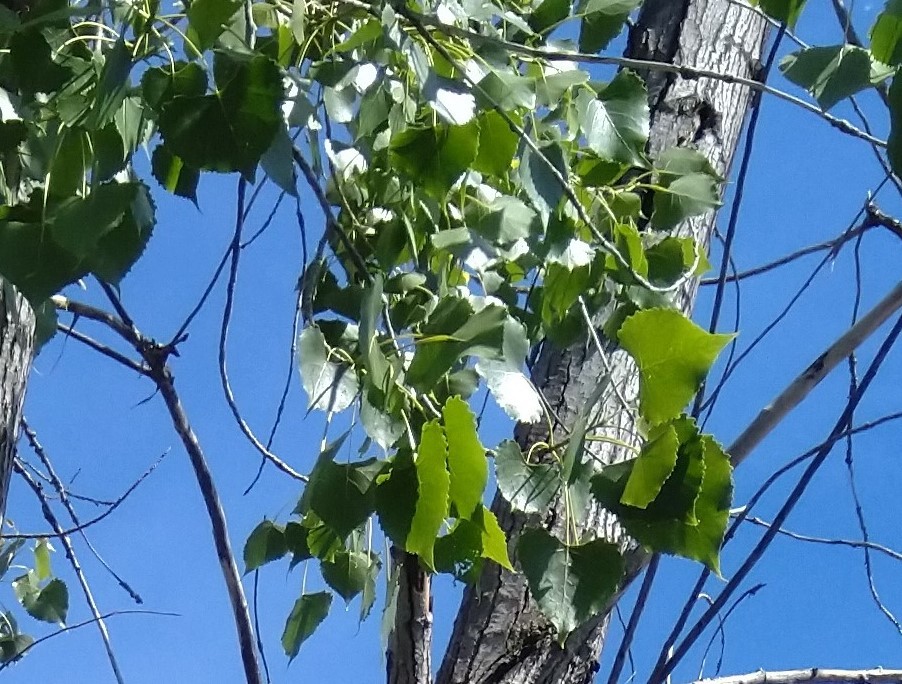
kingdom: Plantae
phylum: Tracheophyta
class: Magnoliopsida
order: Malpighiales
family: Salicaceae
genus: Populus
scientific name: Populus deltoides
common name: Eastern cottonwood
